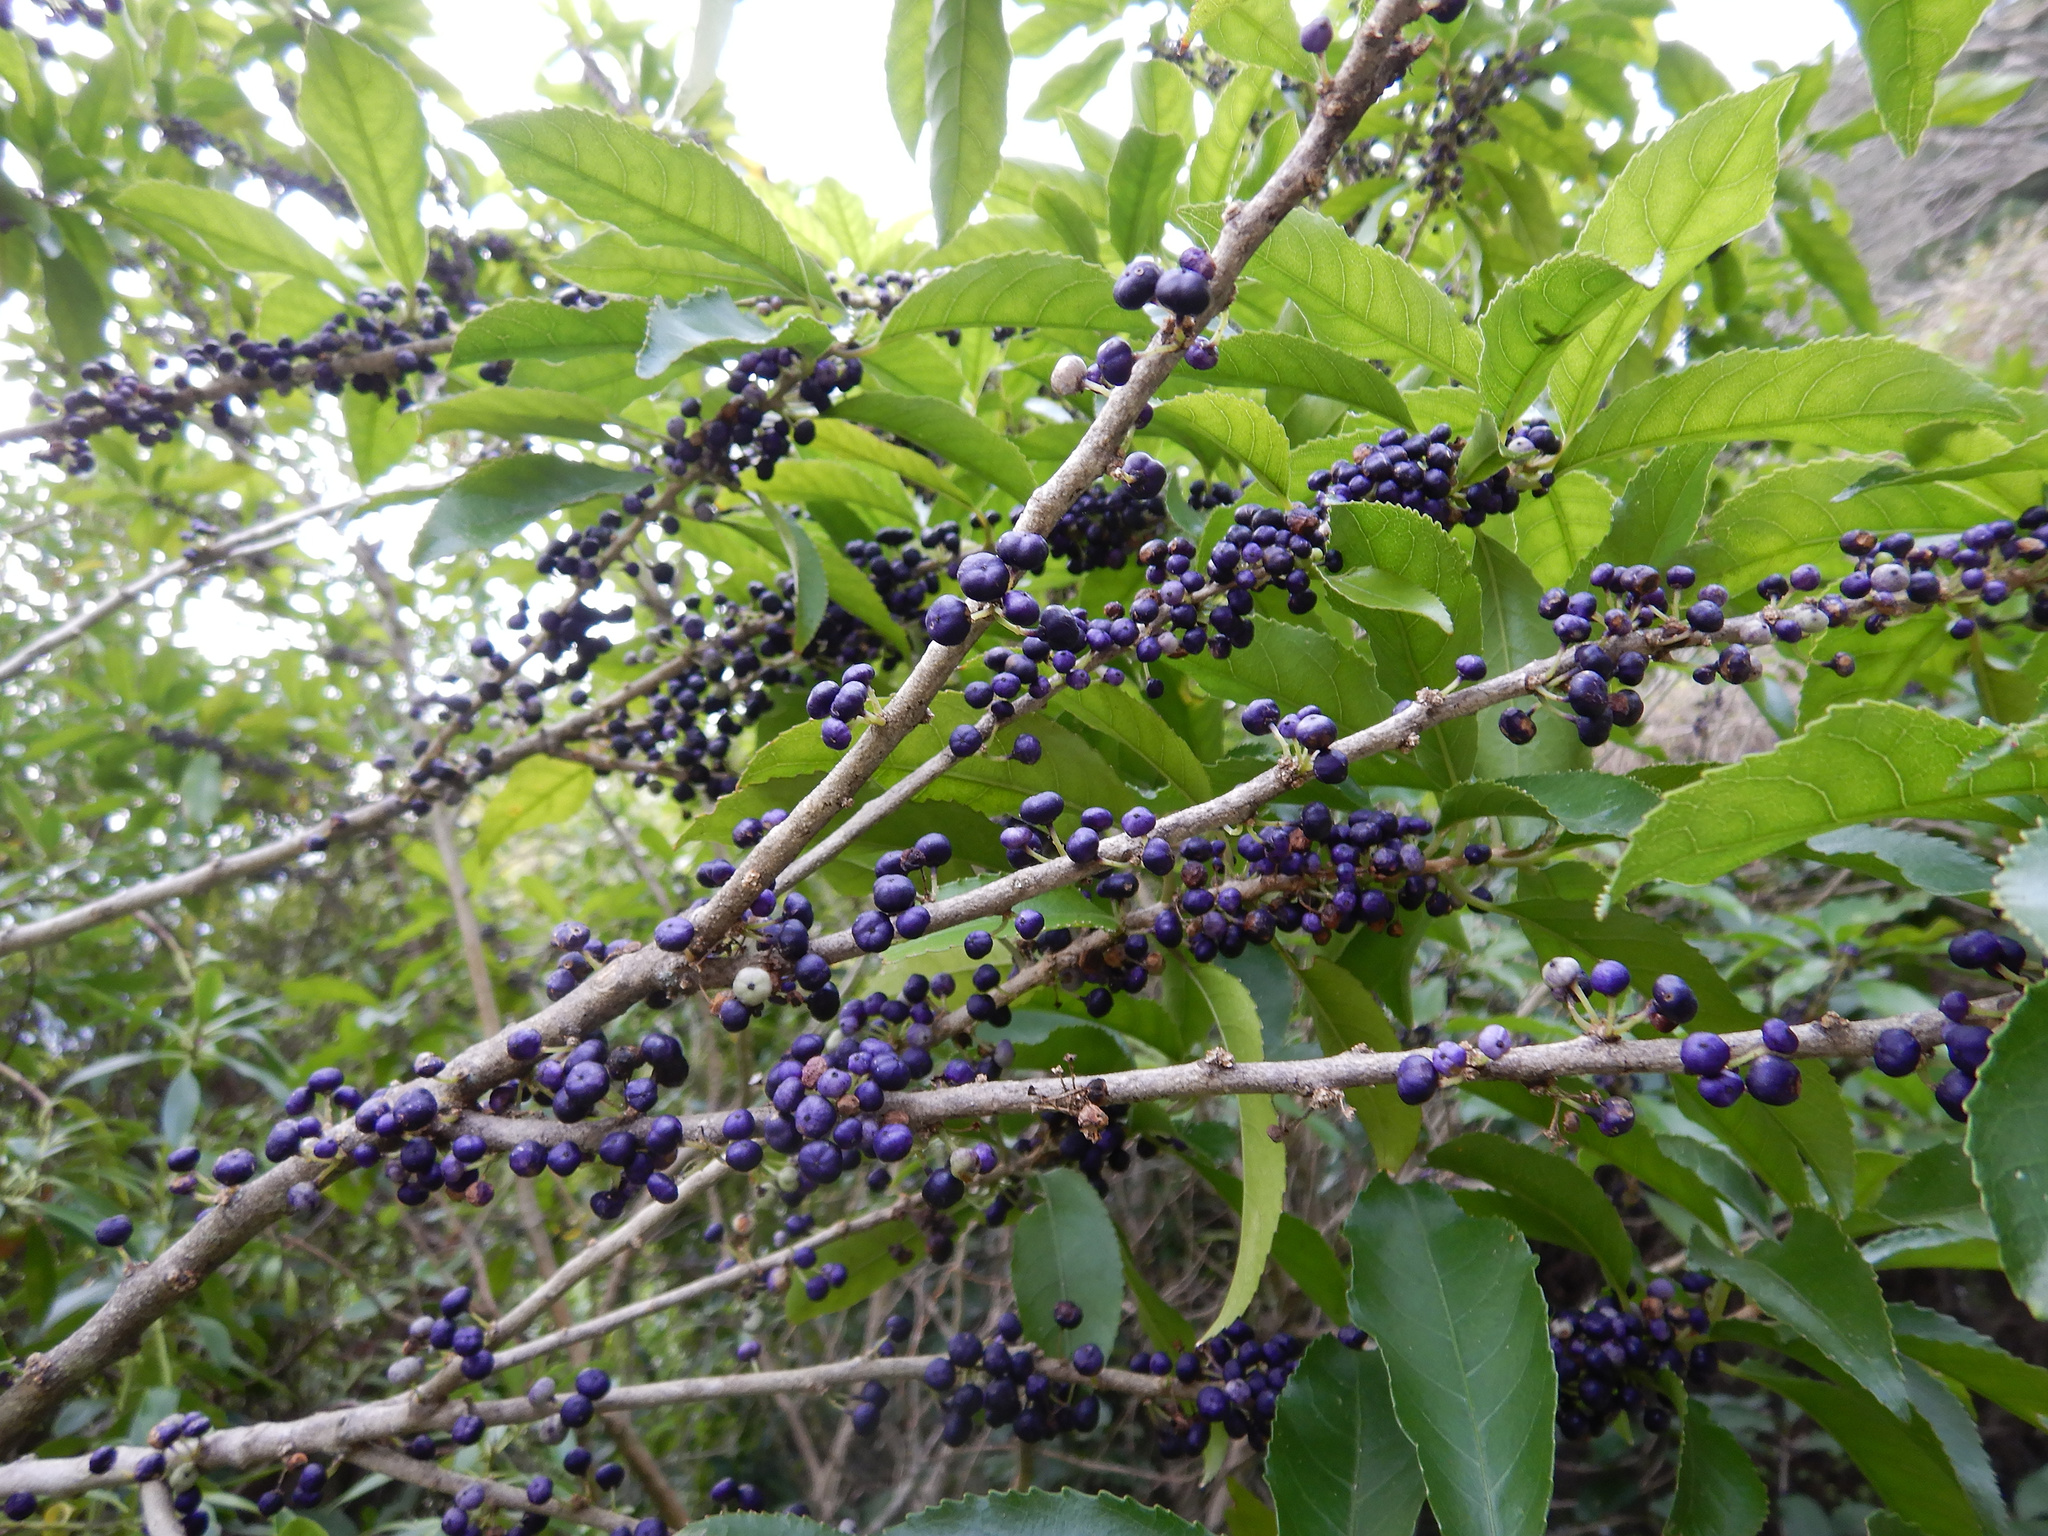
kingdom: Plantae
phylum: Tracheophyta
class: Magnoliopsida
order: Malpighiales
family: Violaceae
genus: Melicytus
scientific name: Melicytus ramiflorus
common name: Mahoe
